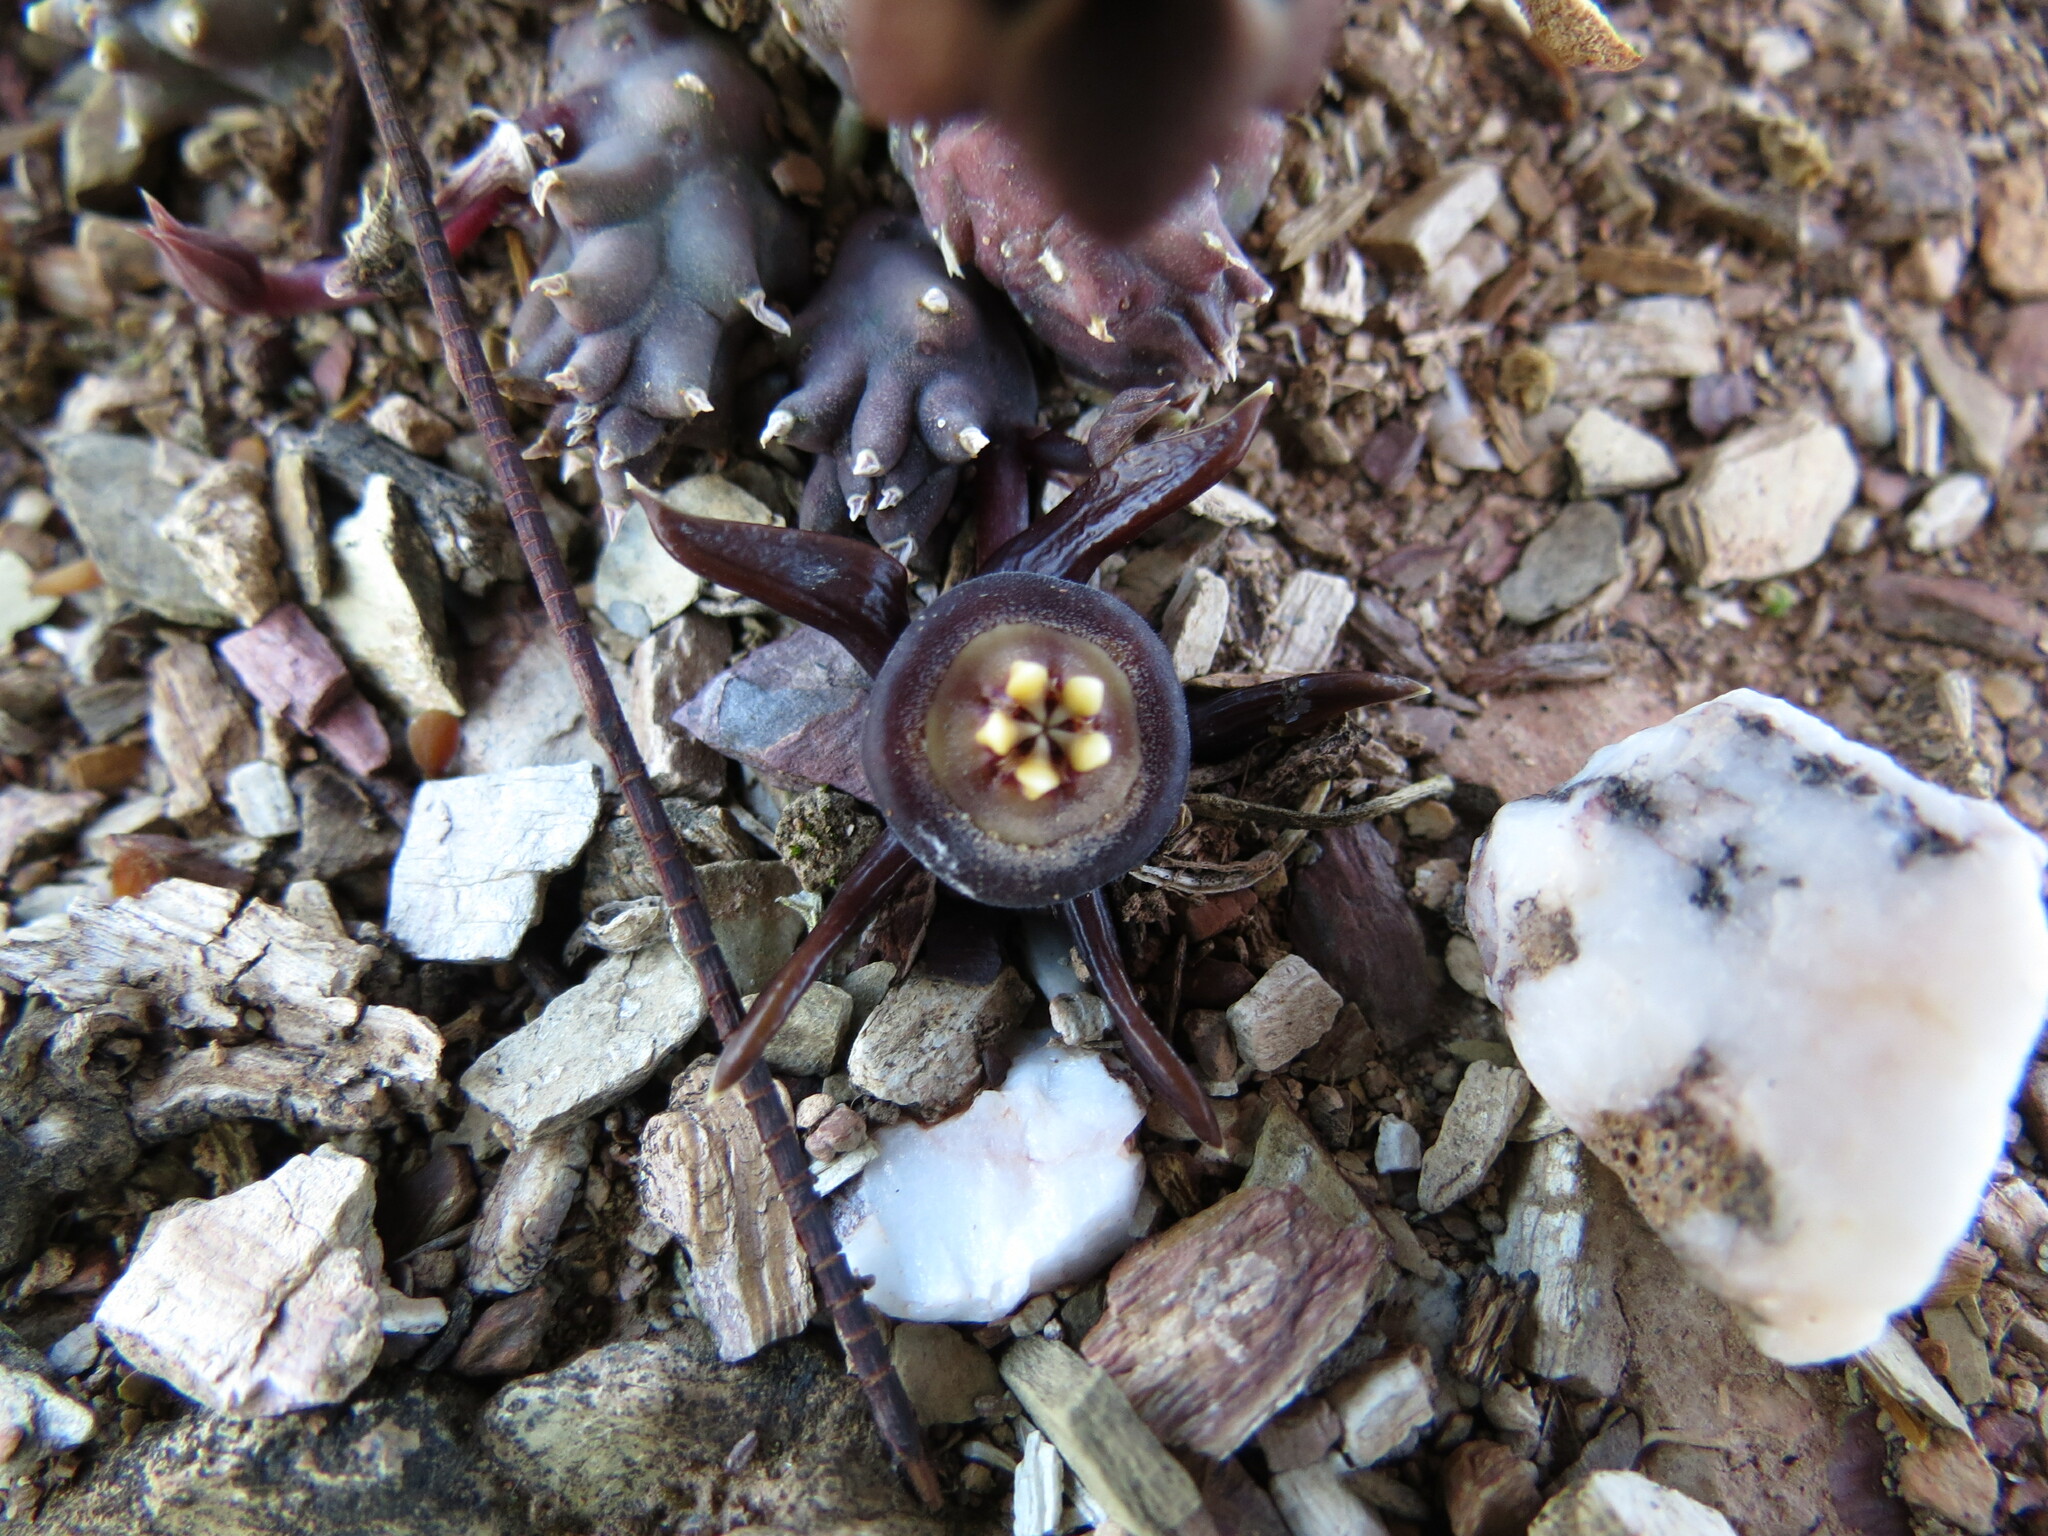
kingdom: Plantae
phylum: Tracheophyta
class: Magnoliopsida
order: Gentianales
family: Apocynaceae
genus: Ceropegia
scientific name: Ceropegia caespitosa
